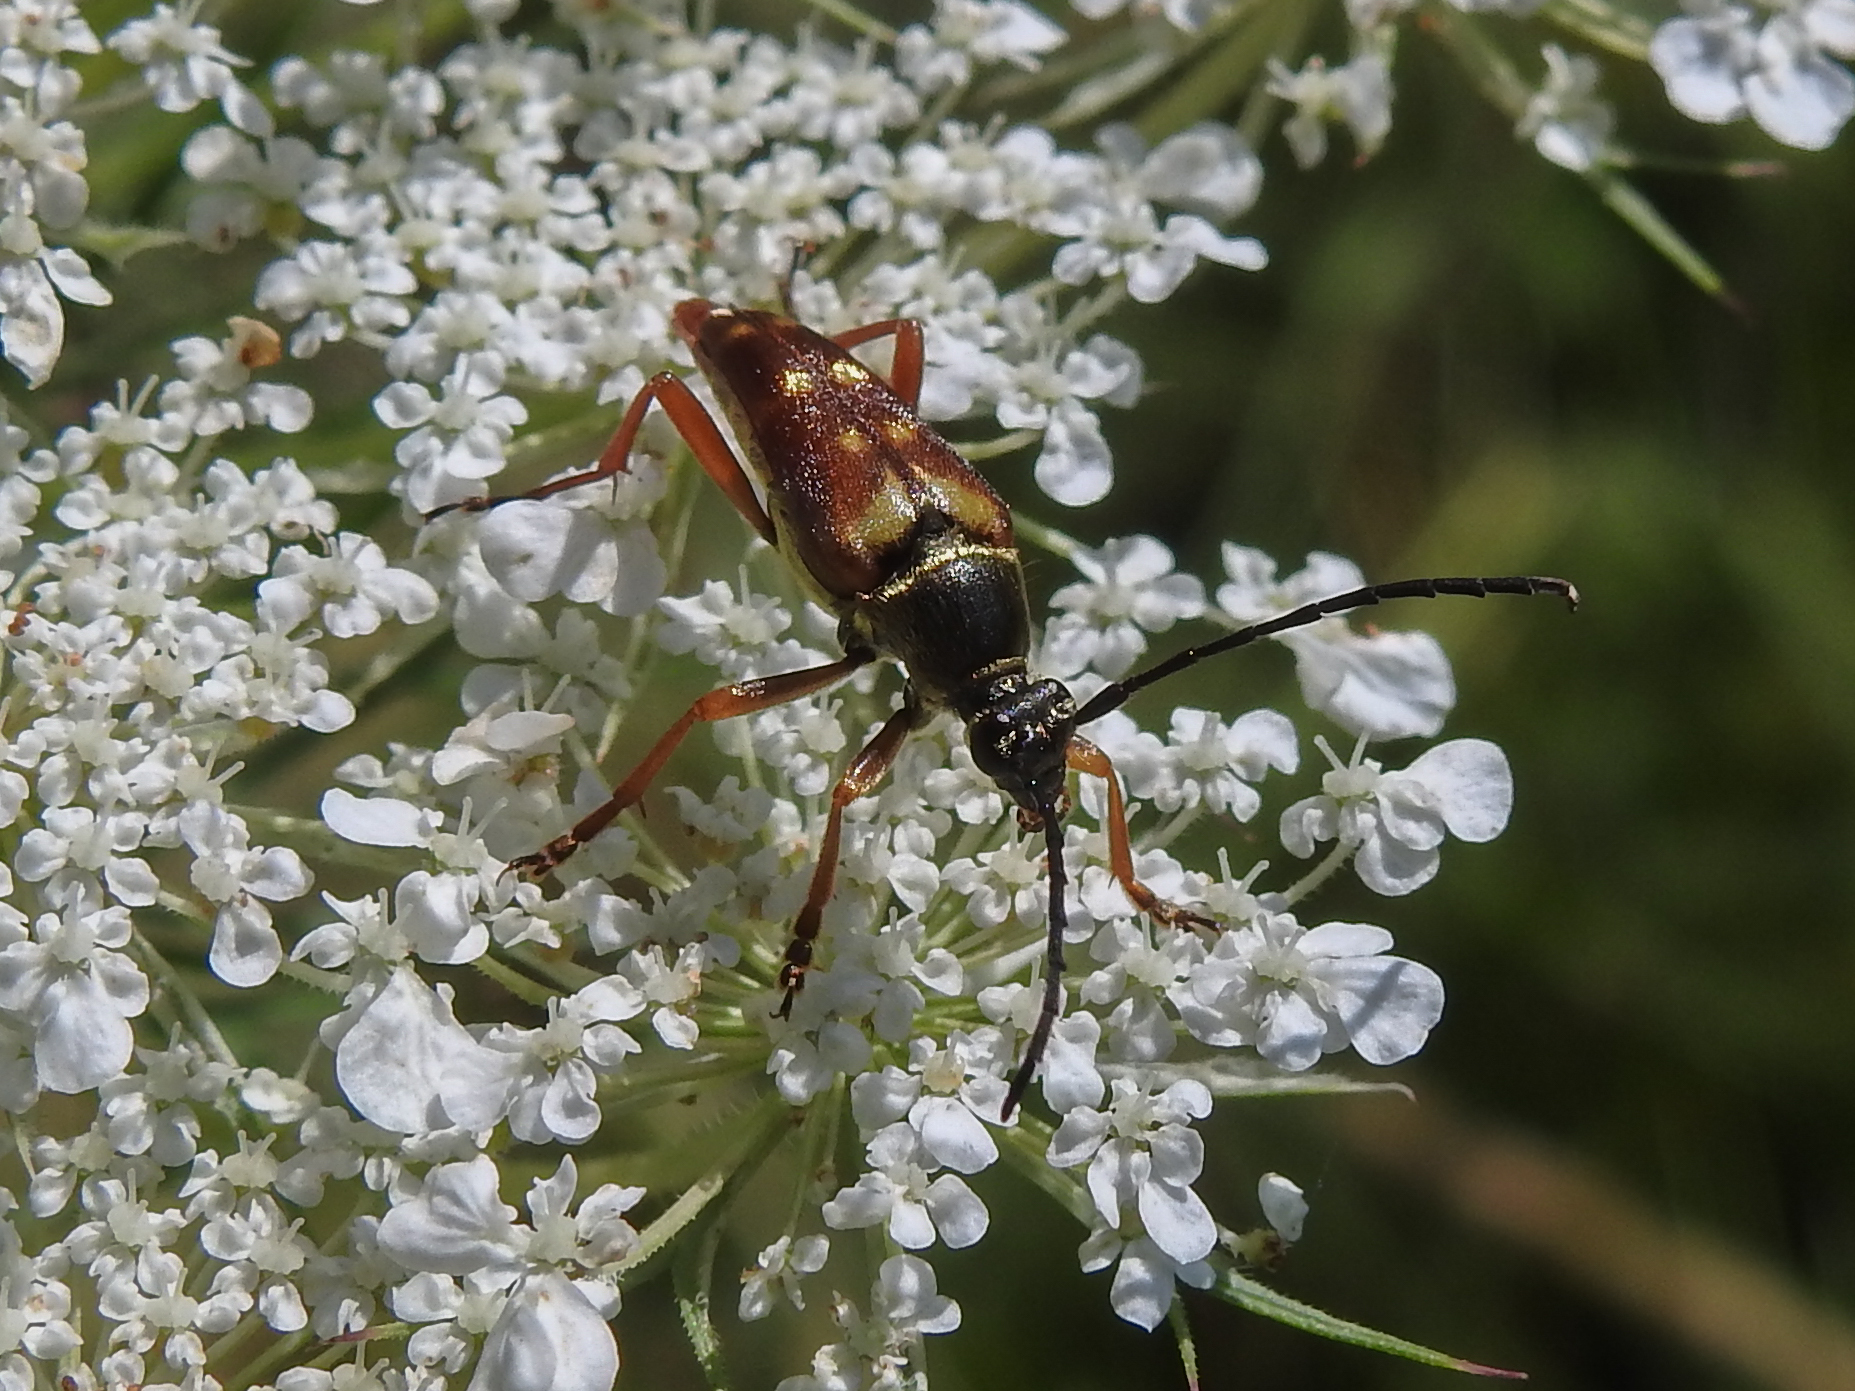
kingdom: Animalia
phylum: Arthropoda
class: Insecta
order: Coleoptera
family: Cerambycidae
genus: Typocerus
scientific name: Typocerus velutinus
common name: Banded longhorn beetle
